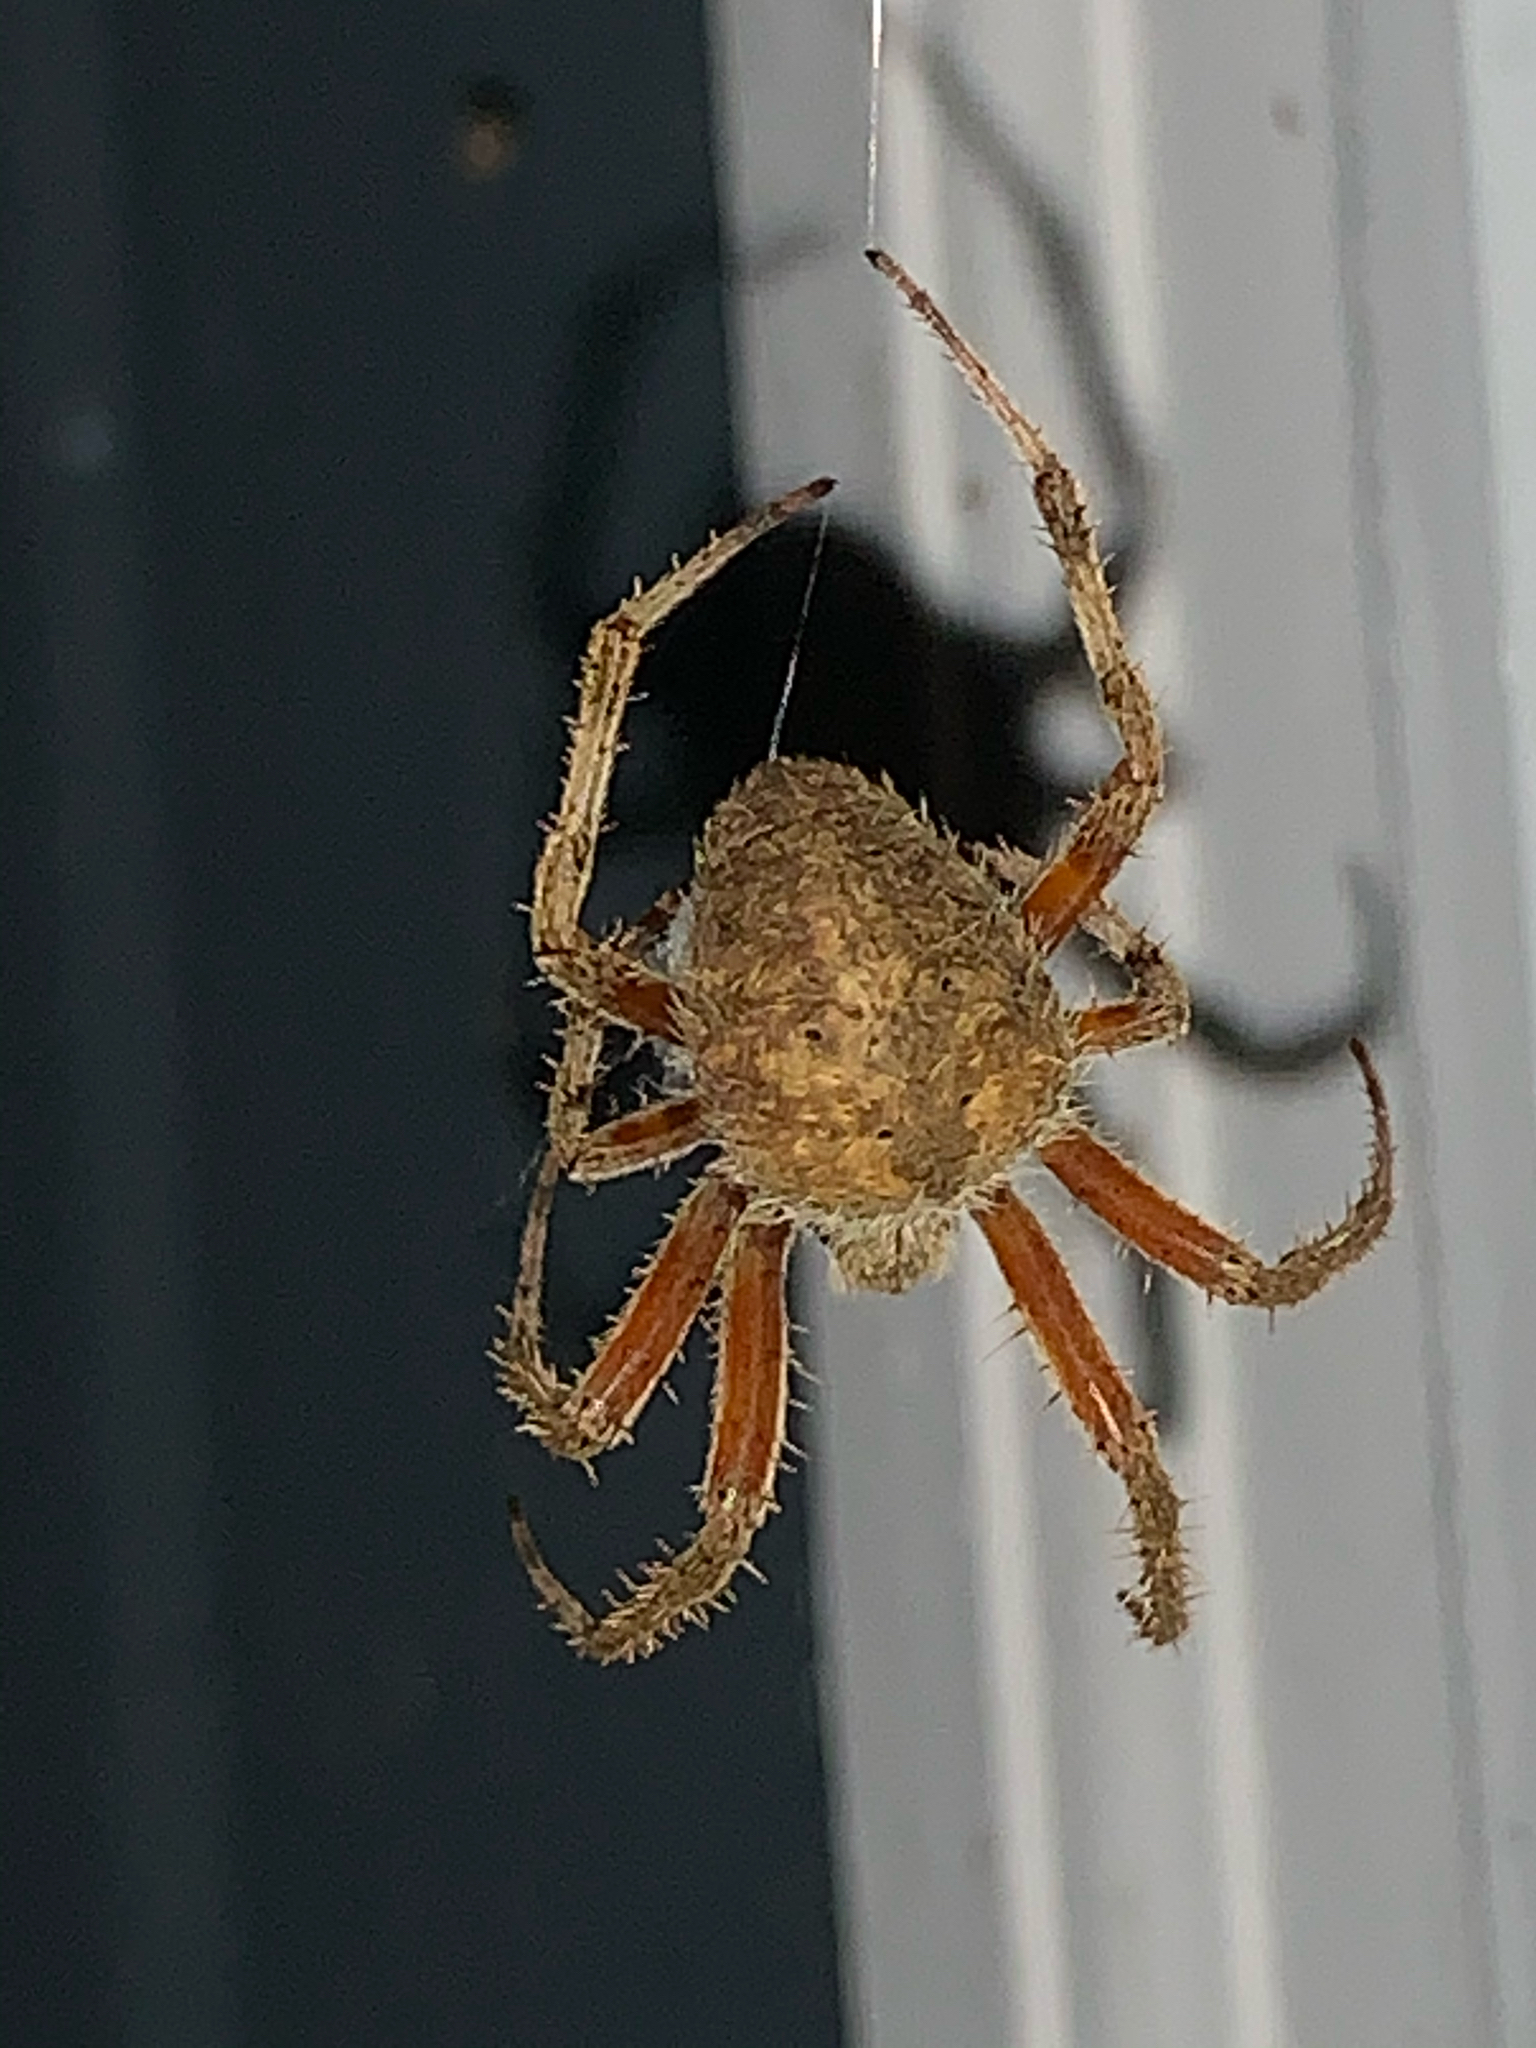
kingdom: Animalia
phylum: Arthropoda
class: Arachnida
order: Araneae
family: Araneidae
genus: Neoscona
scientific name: Neoscona crucifera
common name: Spotted orbweaver
